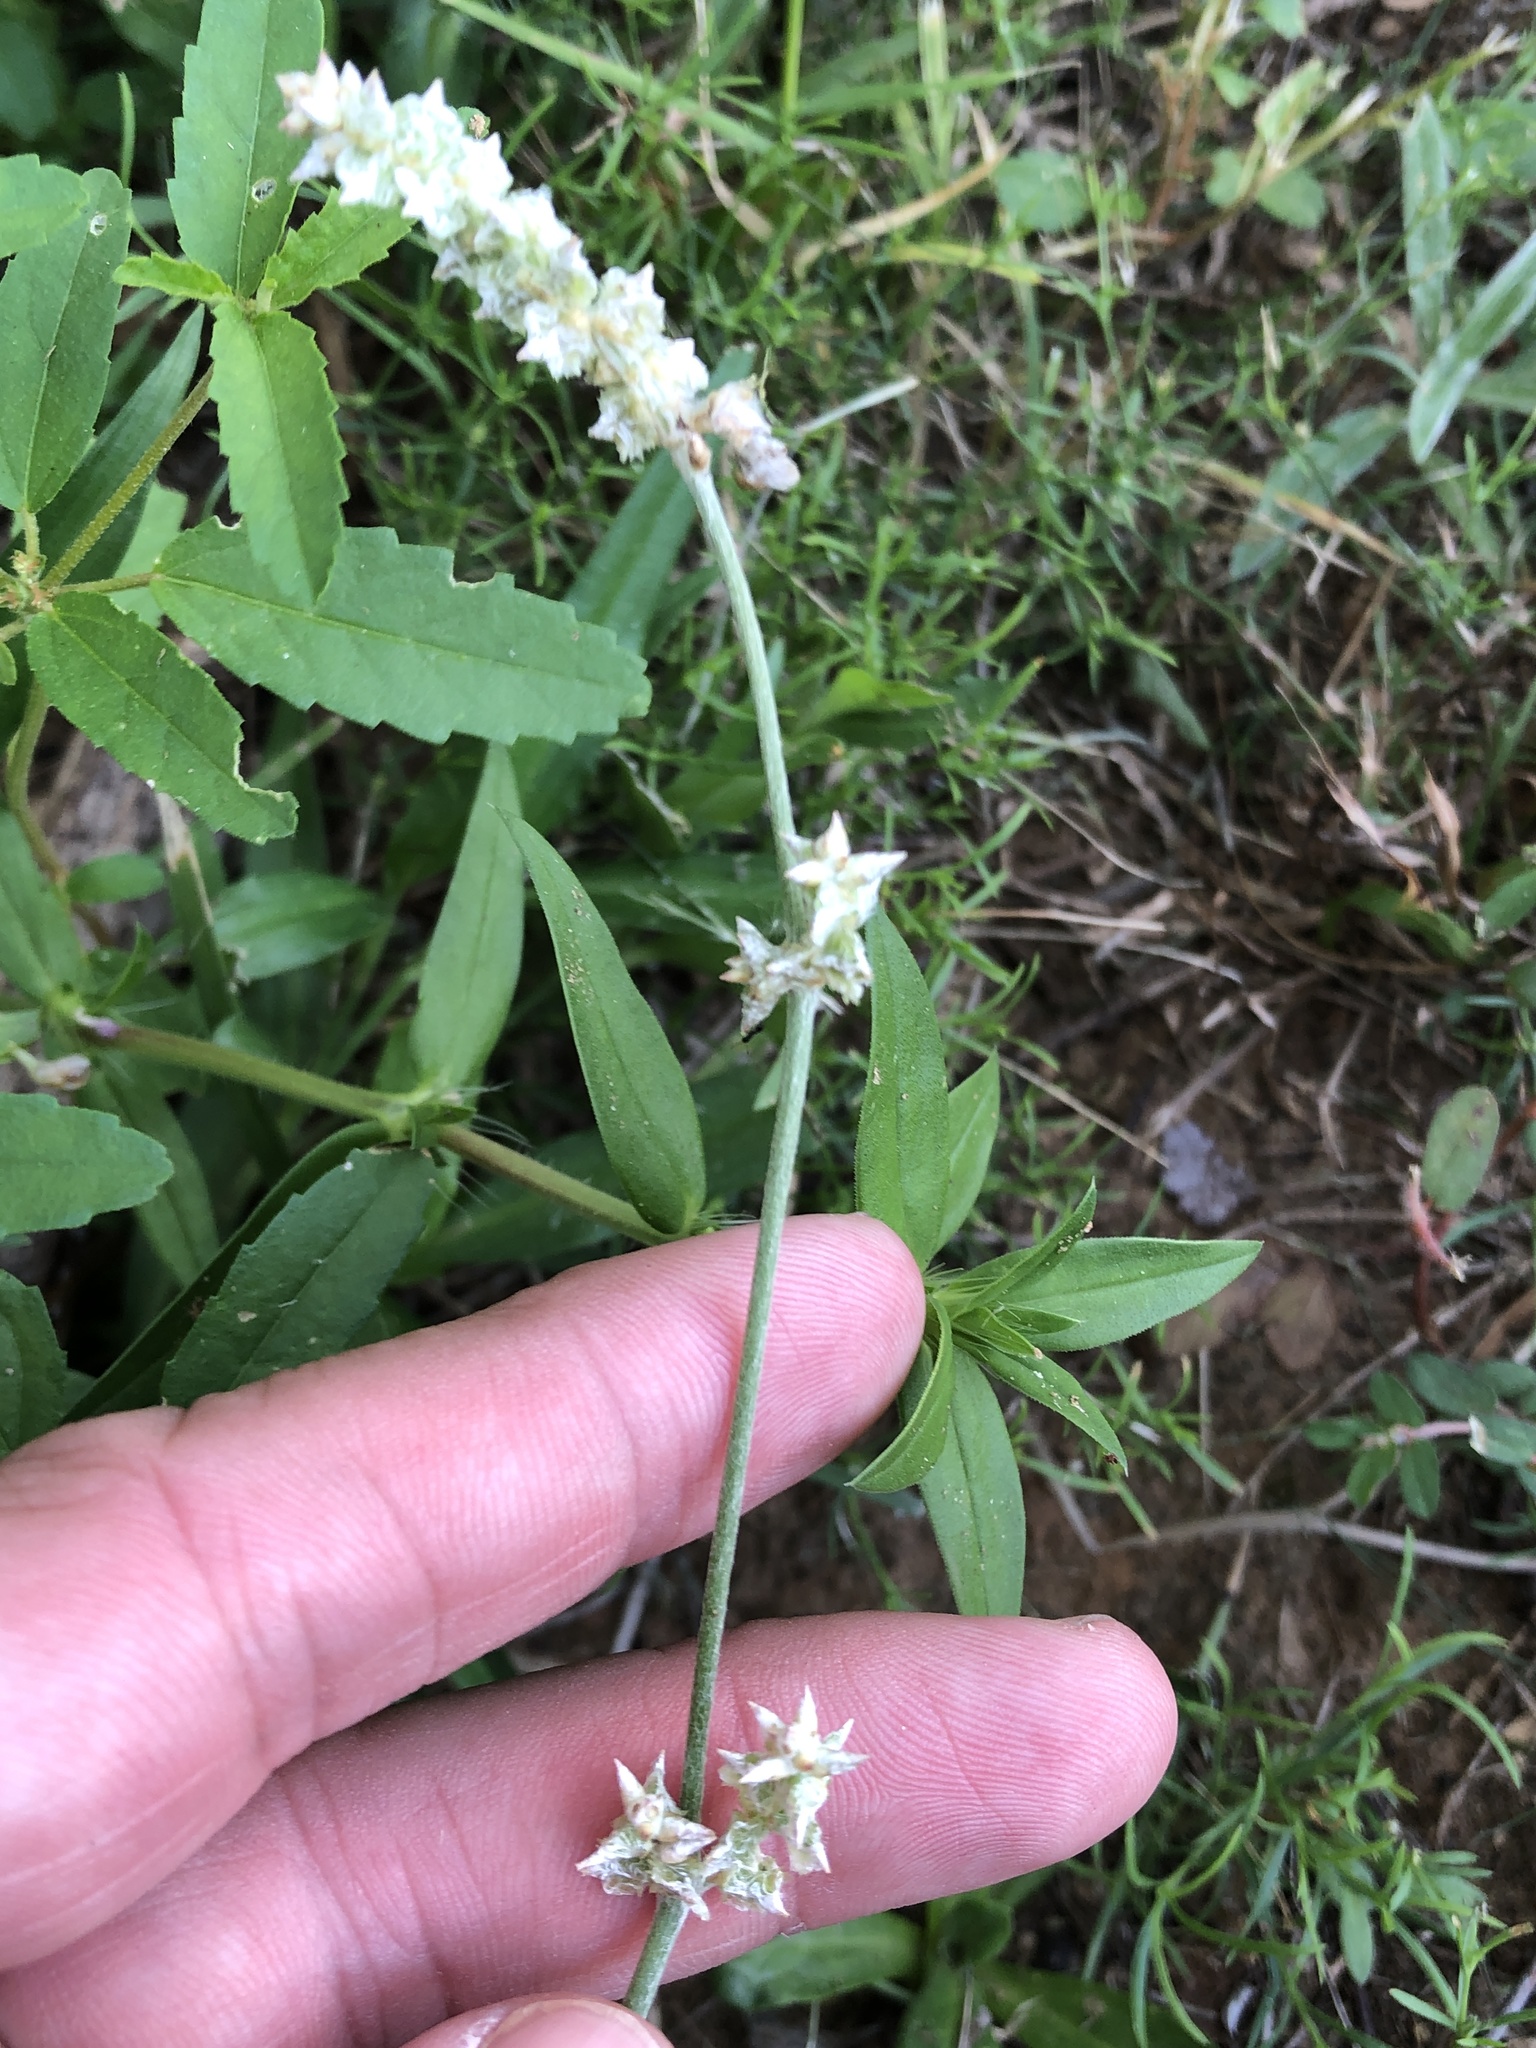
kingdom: Plantae
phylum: Tracheophyta
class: Magnoliopsida
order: Caryophyllales
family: Amaranthaceae
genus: Froelichia
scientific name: Froelichia gracilis
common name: Slender cottonweed
